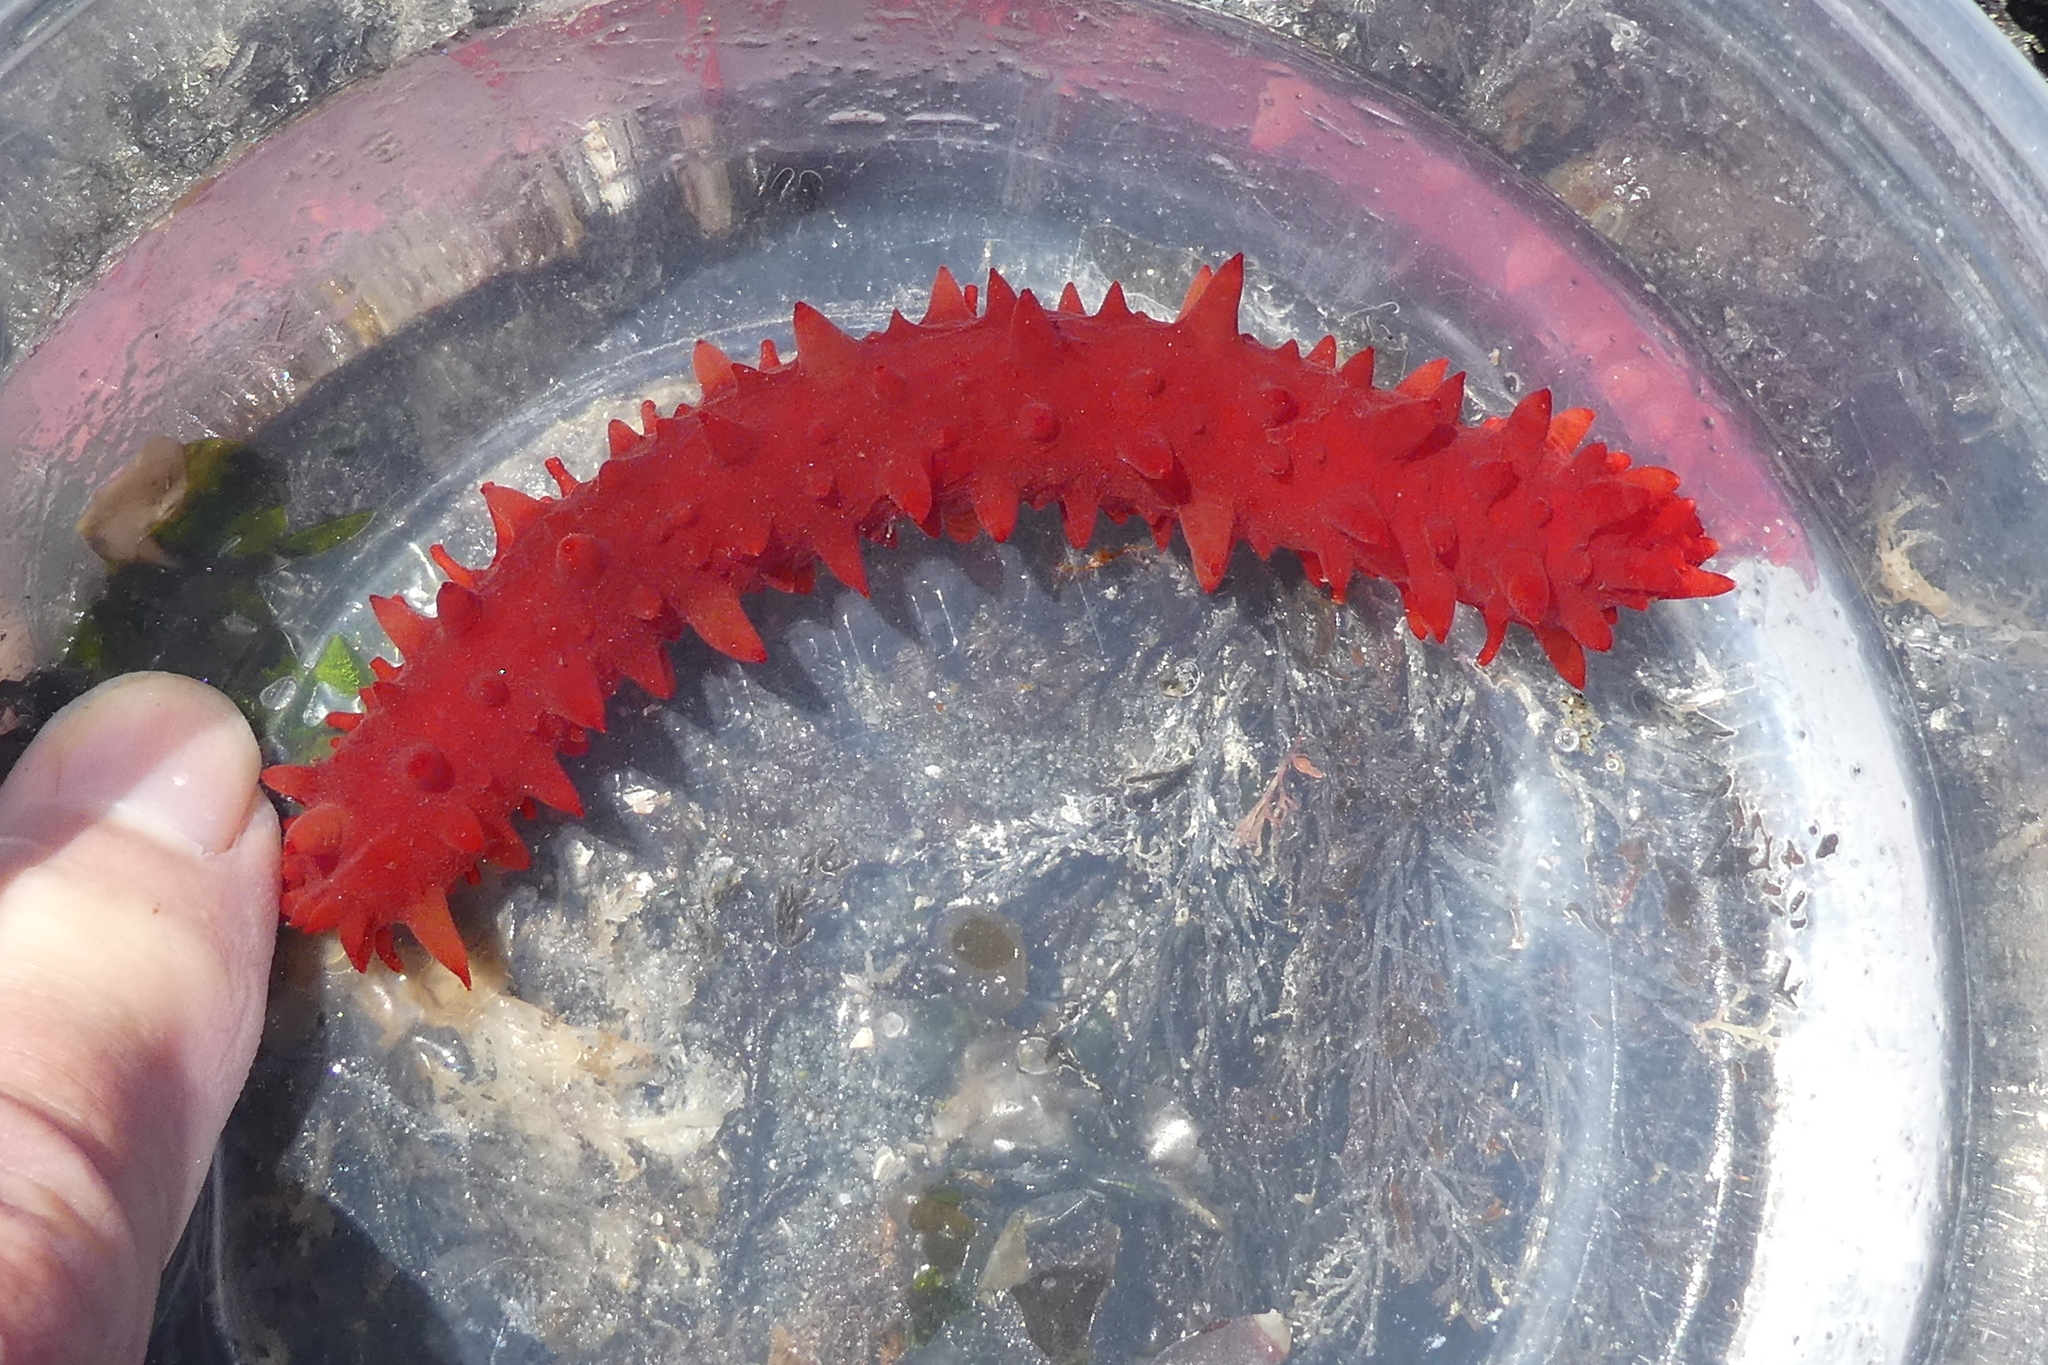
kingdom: Animalia
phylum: Echinodermata
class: Holothuroidea
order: Synallactida
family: Stichopodidae
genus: Apostichopus
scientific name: Apostichopus californicus
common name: California sea cucumber
